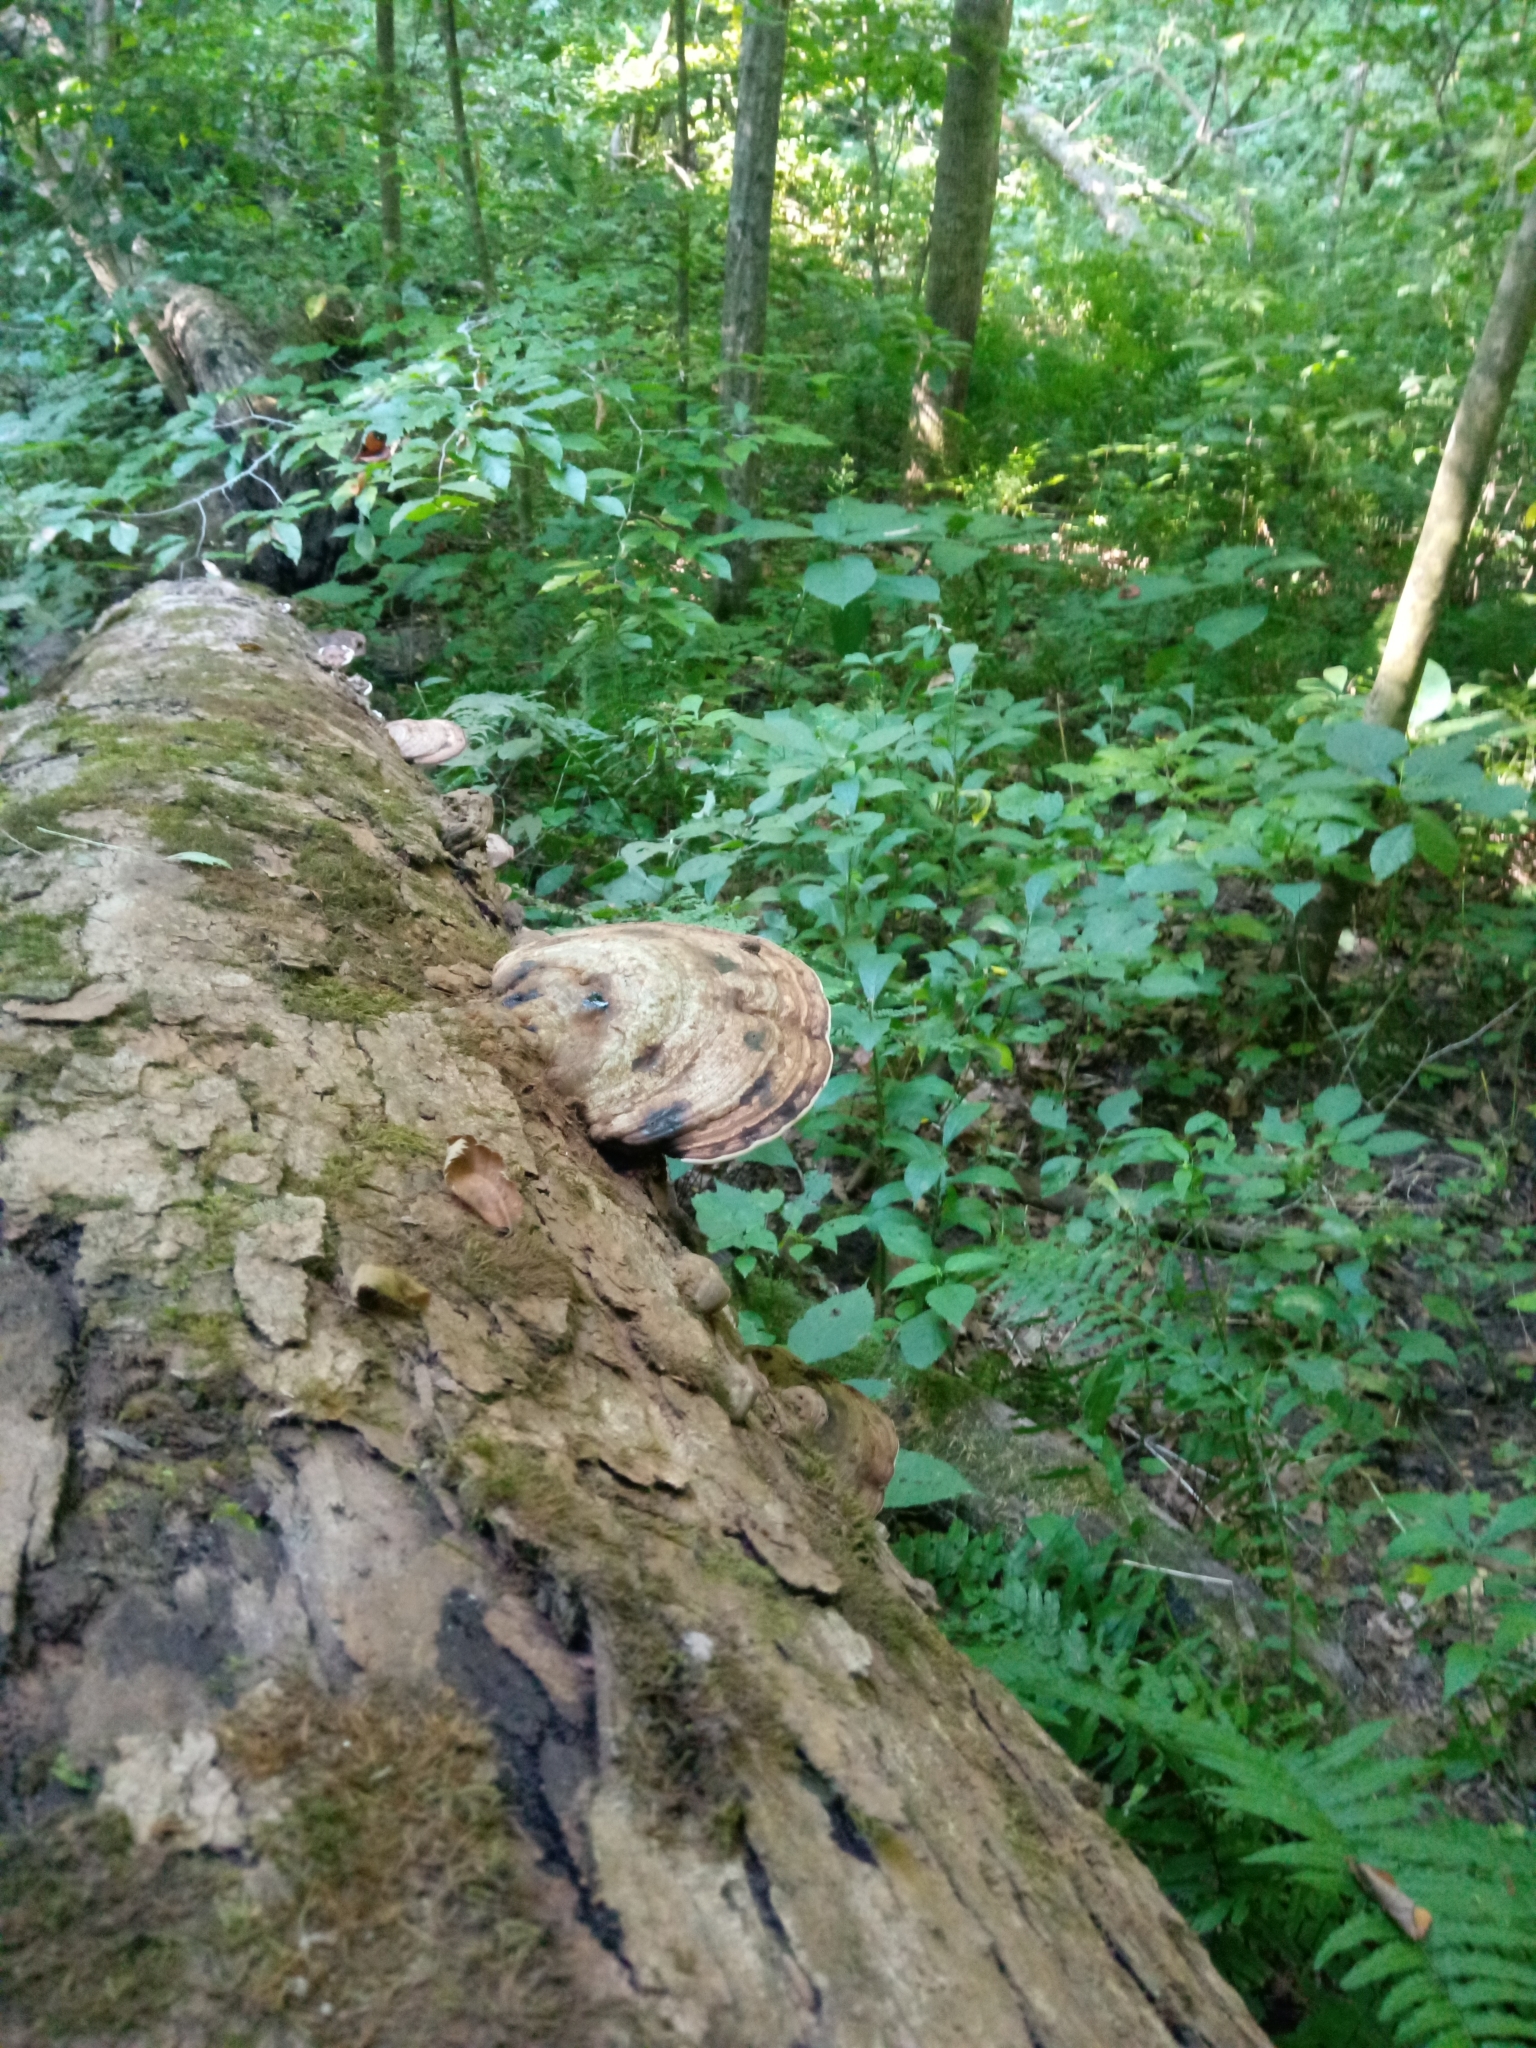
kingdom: Fungi
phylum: Basidiomycota
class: Agaricomycetes
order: Polyporales
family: Polyporaceae
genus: Ganoderma
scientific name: Ganoderma applanatum
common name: Artist's bracket
